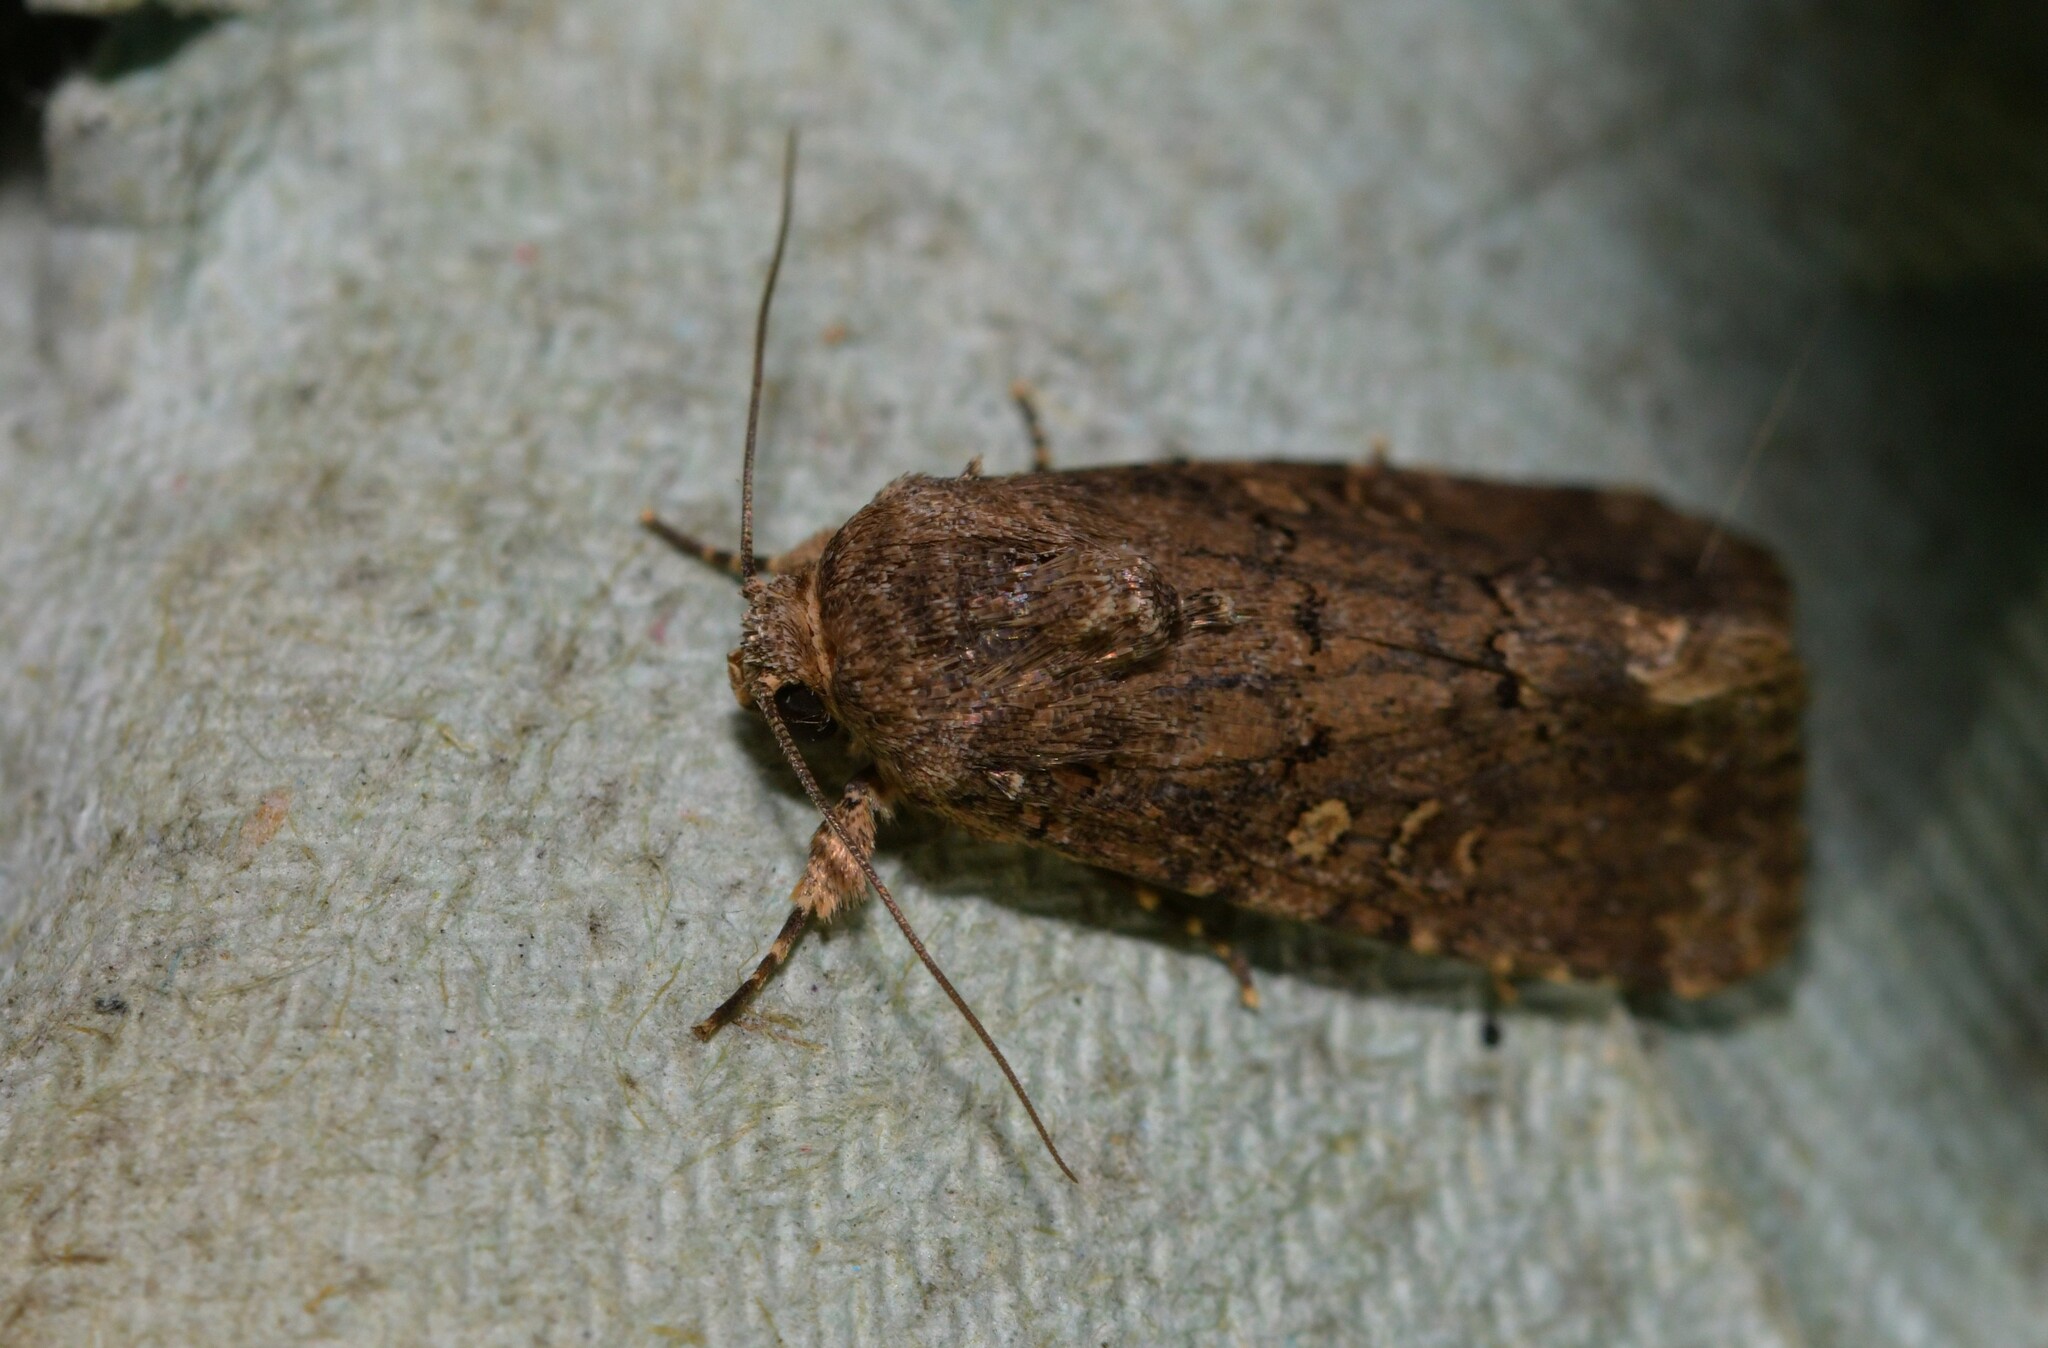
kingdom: Animalia
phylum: Arthropoda
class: Insecta
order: Lepidoptera
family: Noctuidae
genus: Spodoptera
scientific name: Spodoptera cilium
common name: Dark mottled willow
